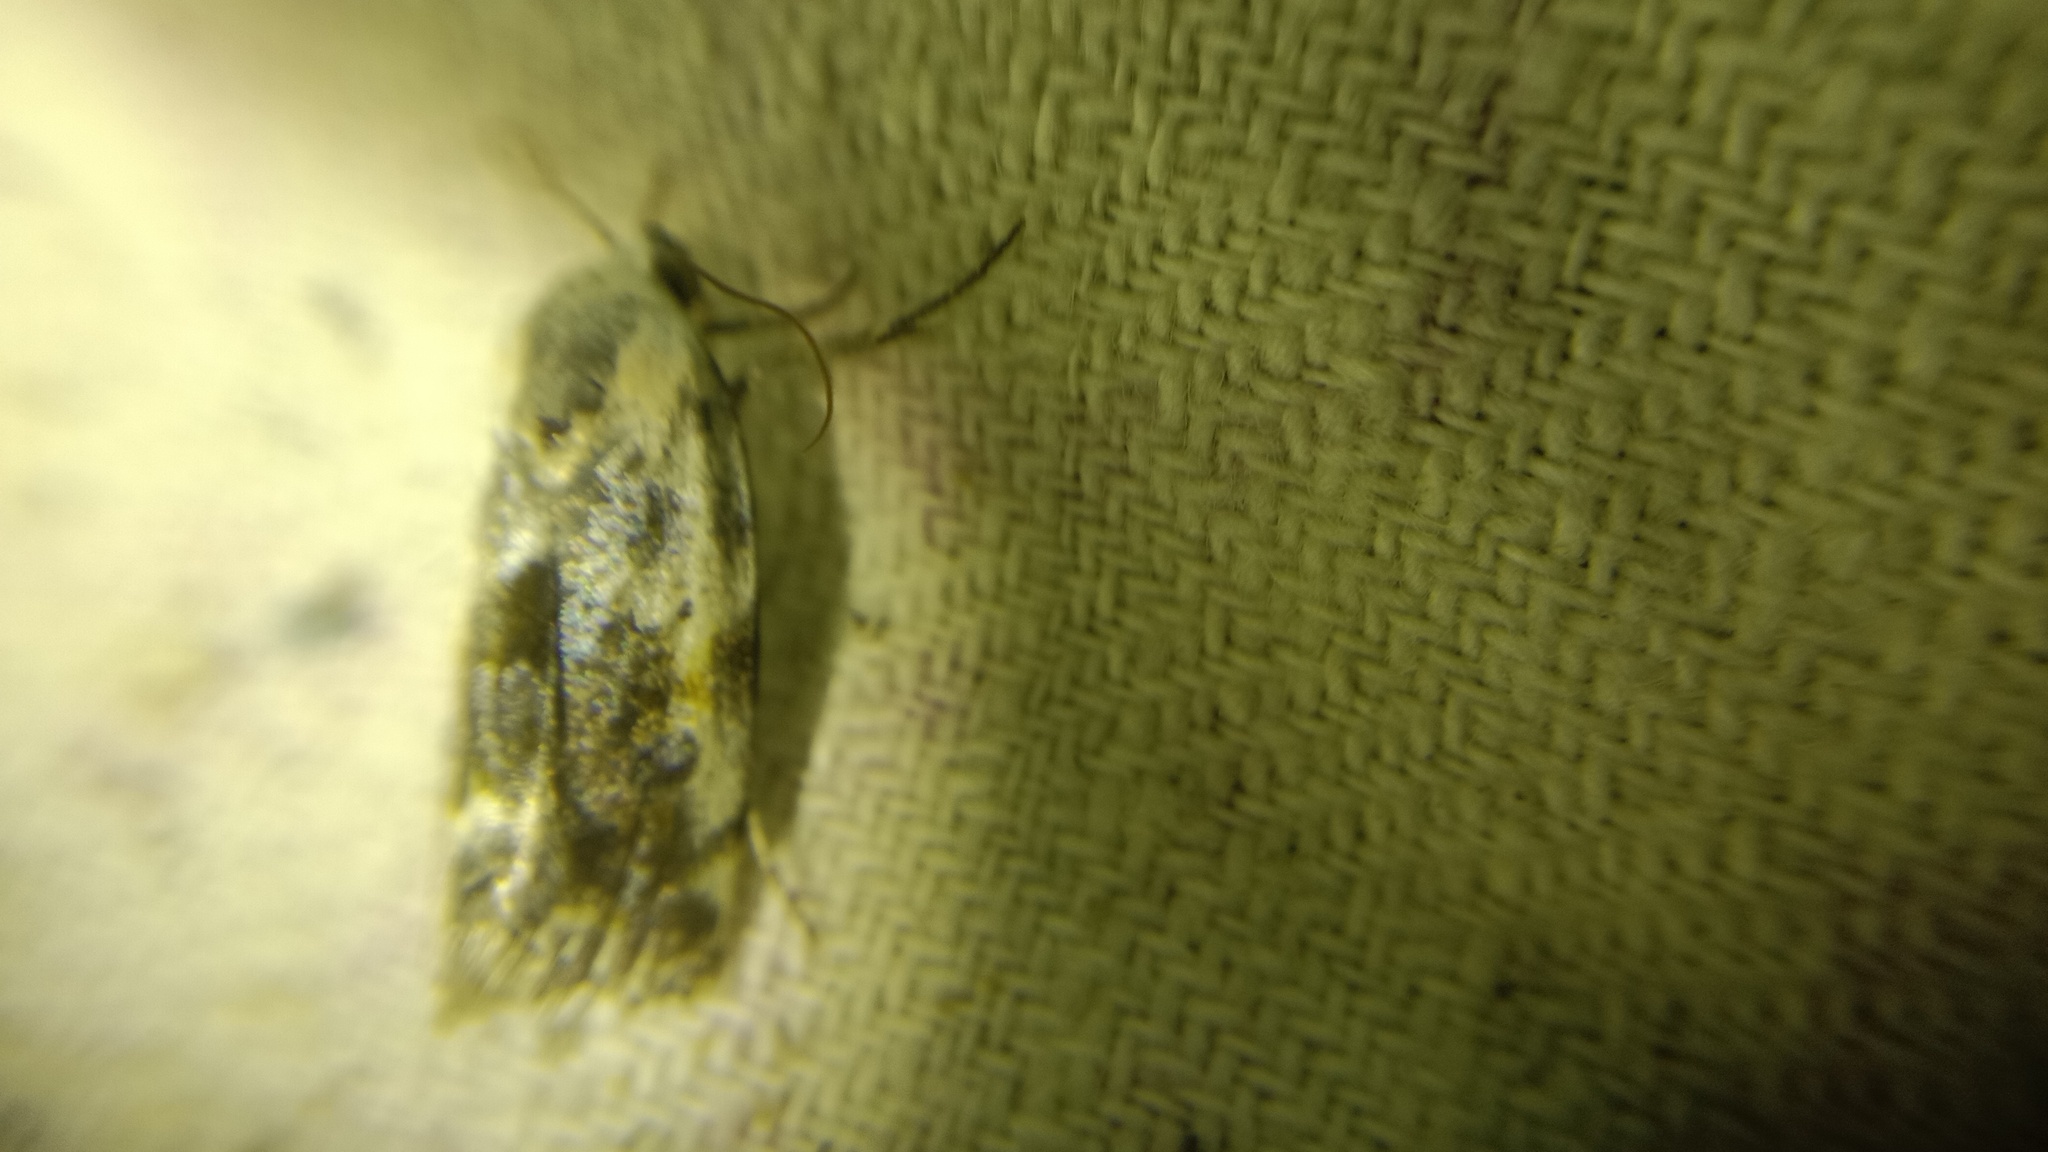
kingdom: Animalia
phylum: Arthropoda
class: Insecta
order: Lepidoptera
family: Noctuidae
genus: Acontia
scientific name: Acontia candefacta
